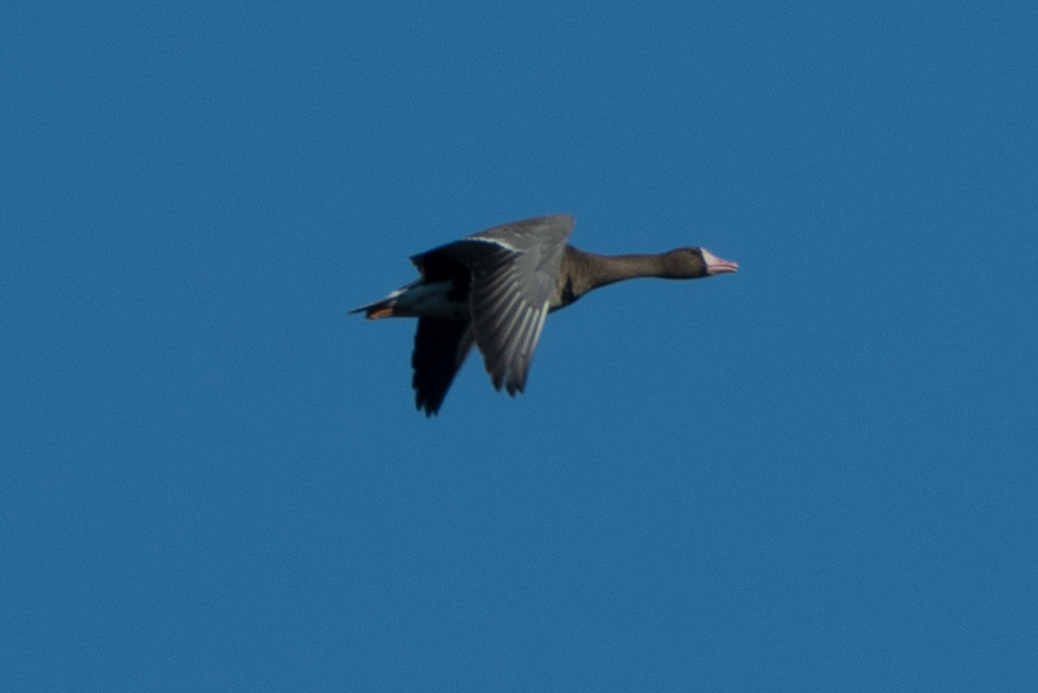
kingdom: Animalia
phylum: Chordata
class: Aves
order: Anseriformes
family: Anatidae
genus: Anser
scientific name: Anser albifrons
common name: Greater white-fronted goose
